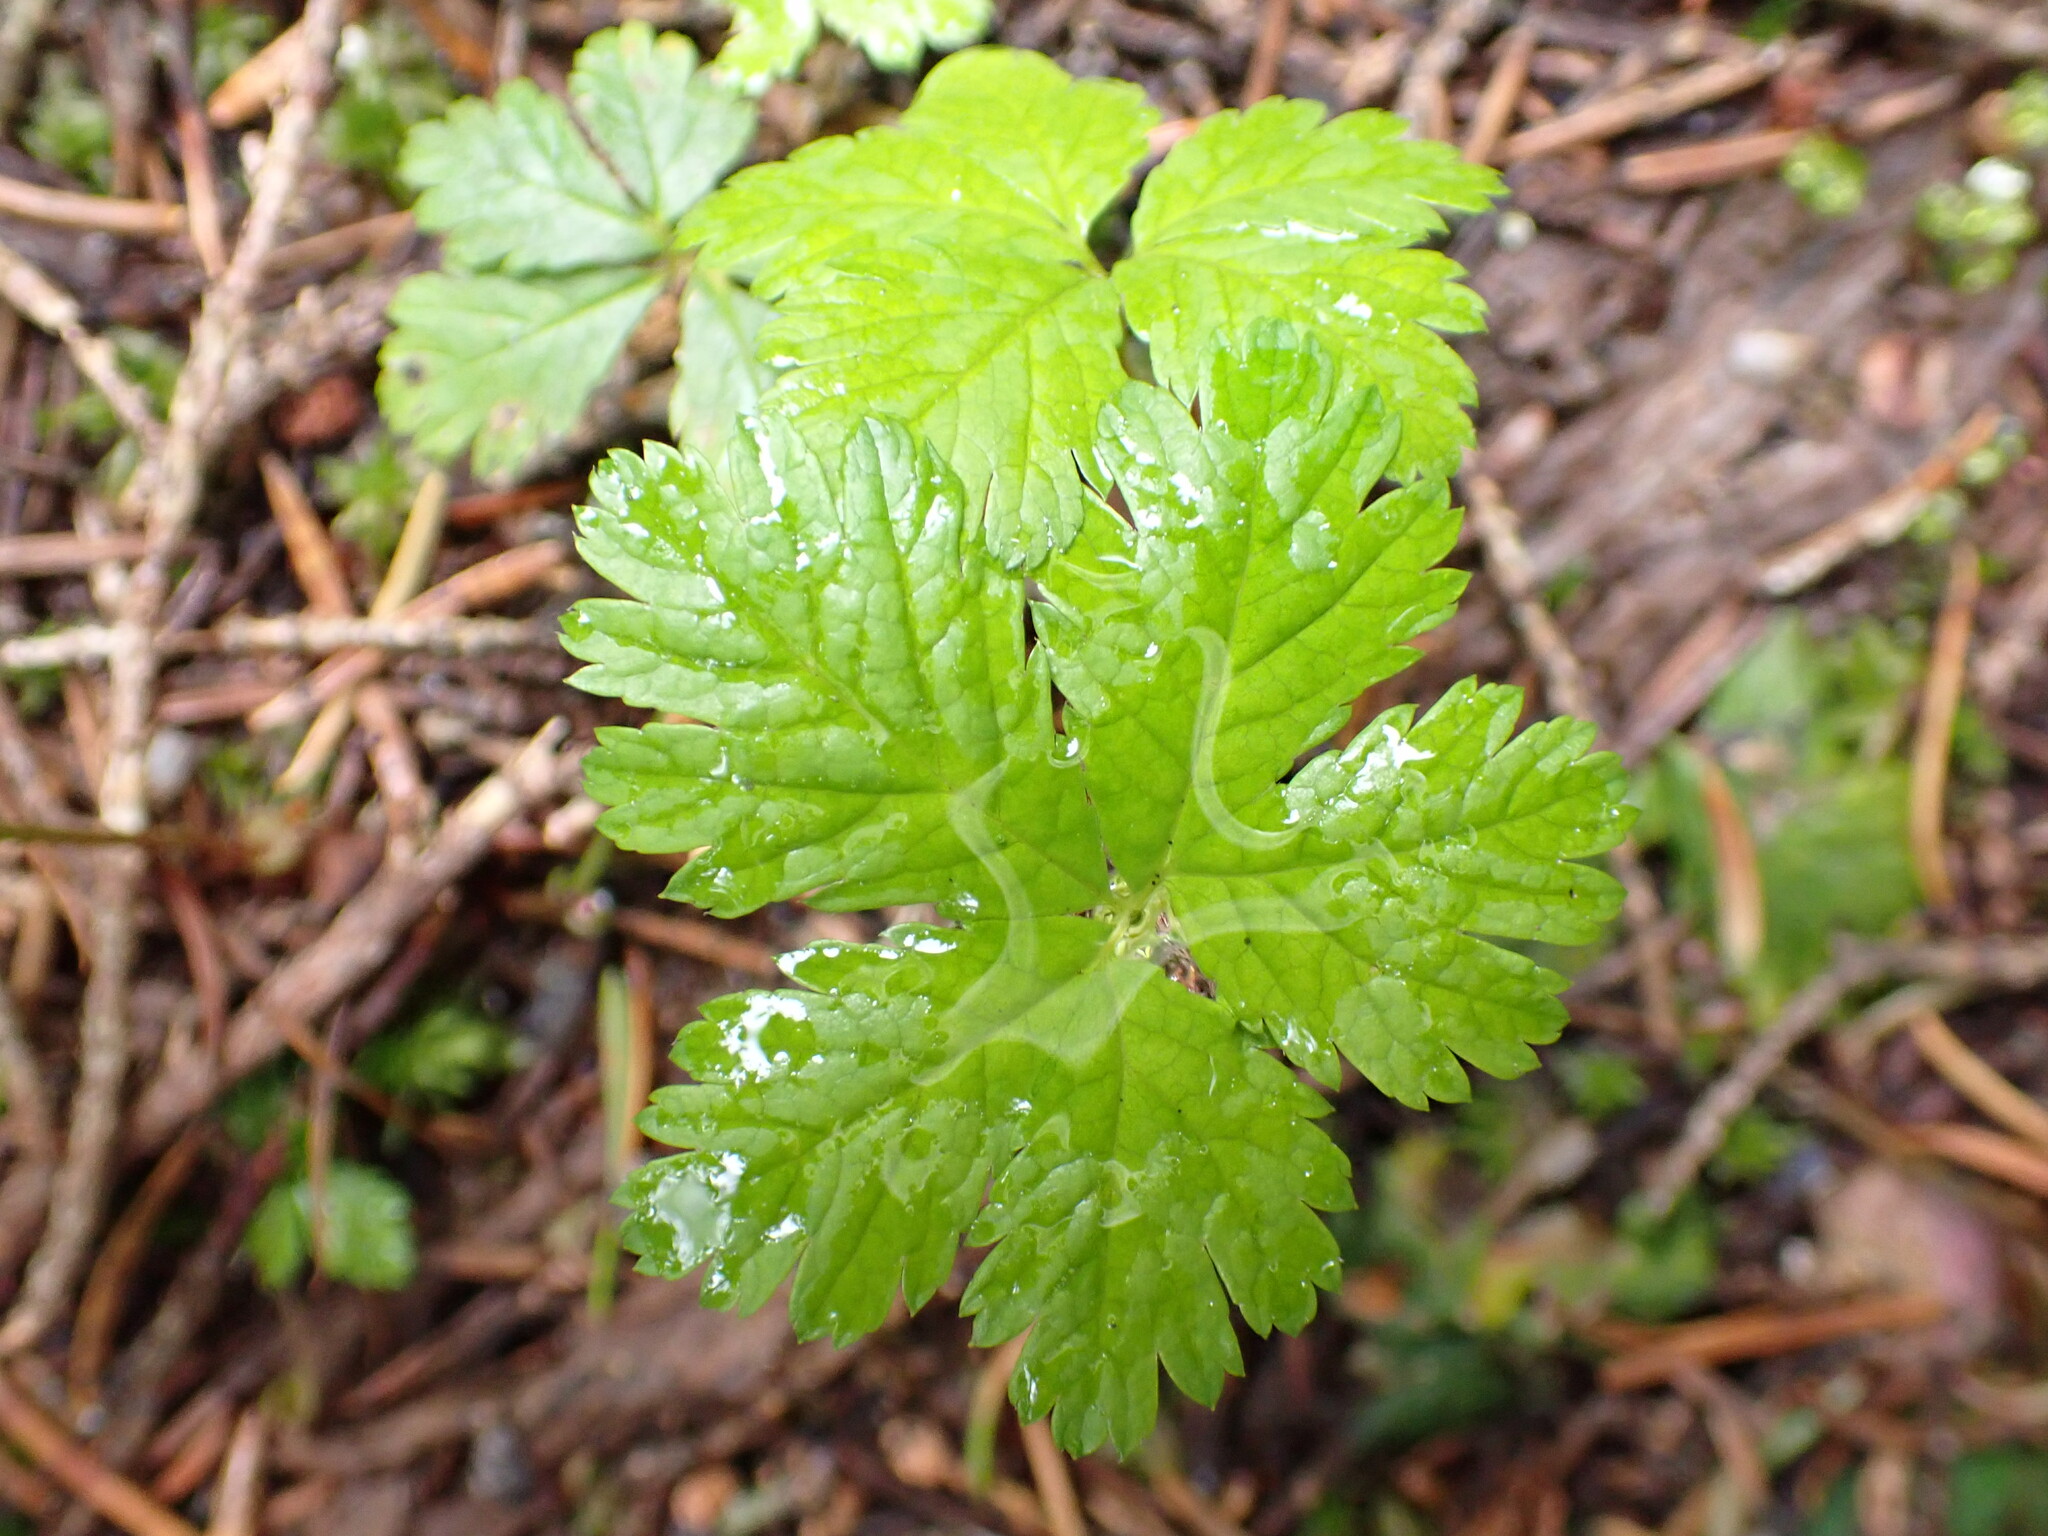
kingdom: Plantae
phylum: Tracheophyta
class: Magnoliopsida
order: Rosales
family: Rosaceae
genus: Rubus
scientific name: Rubus pedatus
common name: Creeping raspberry
